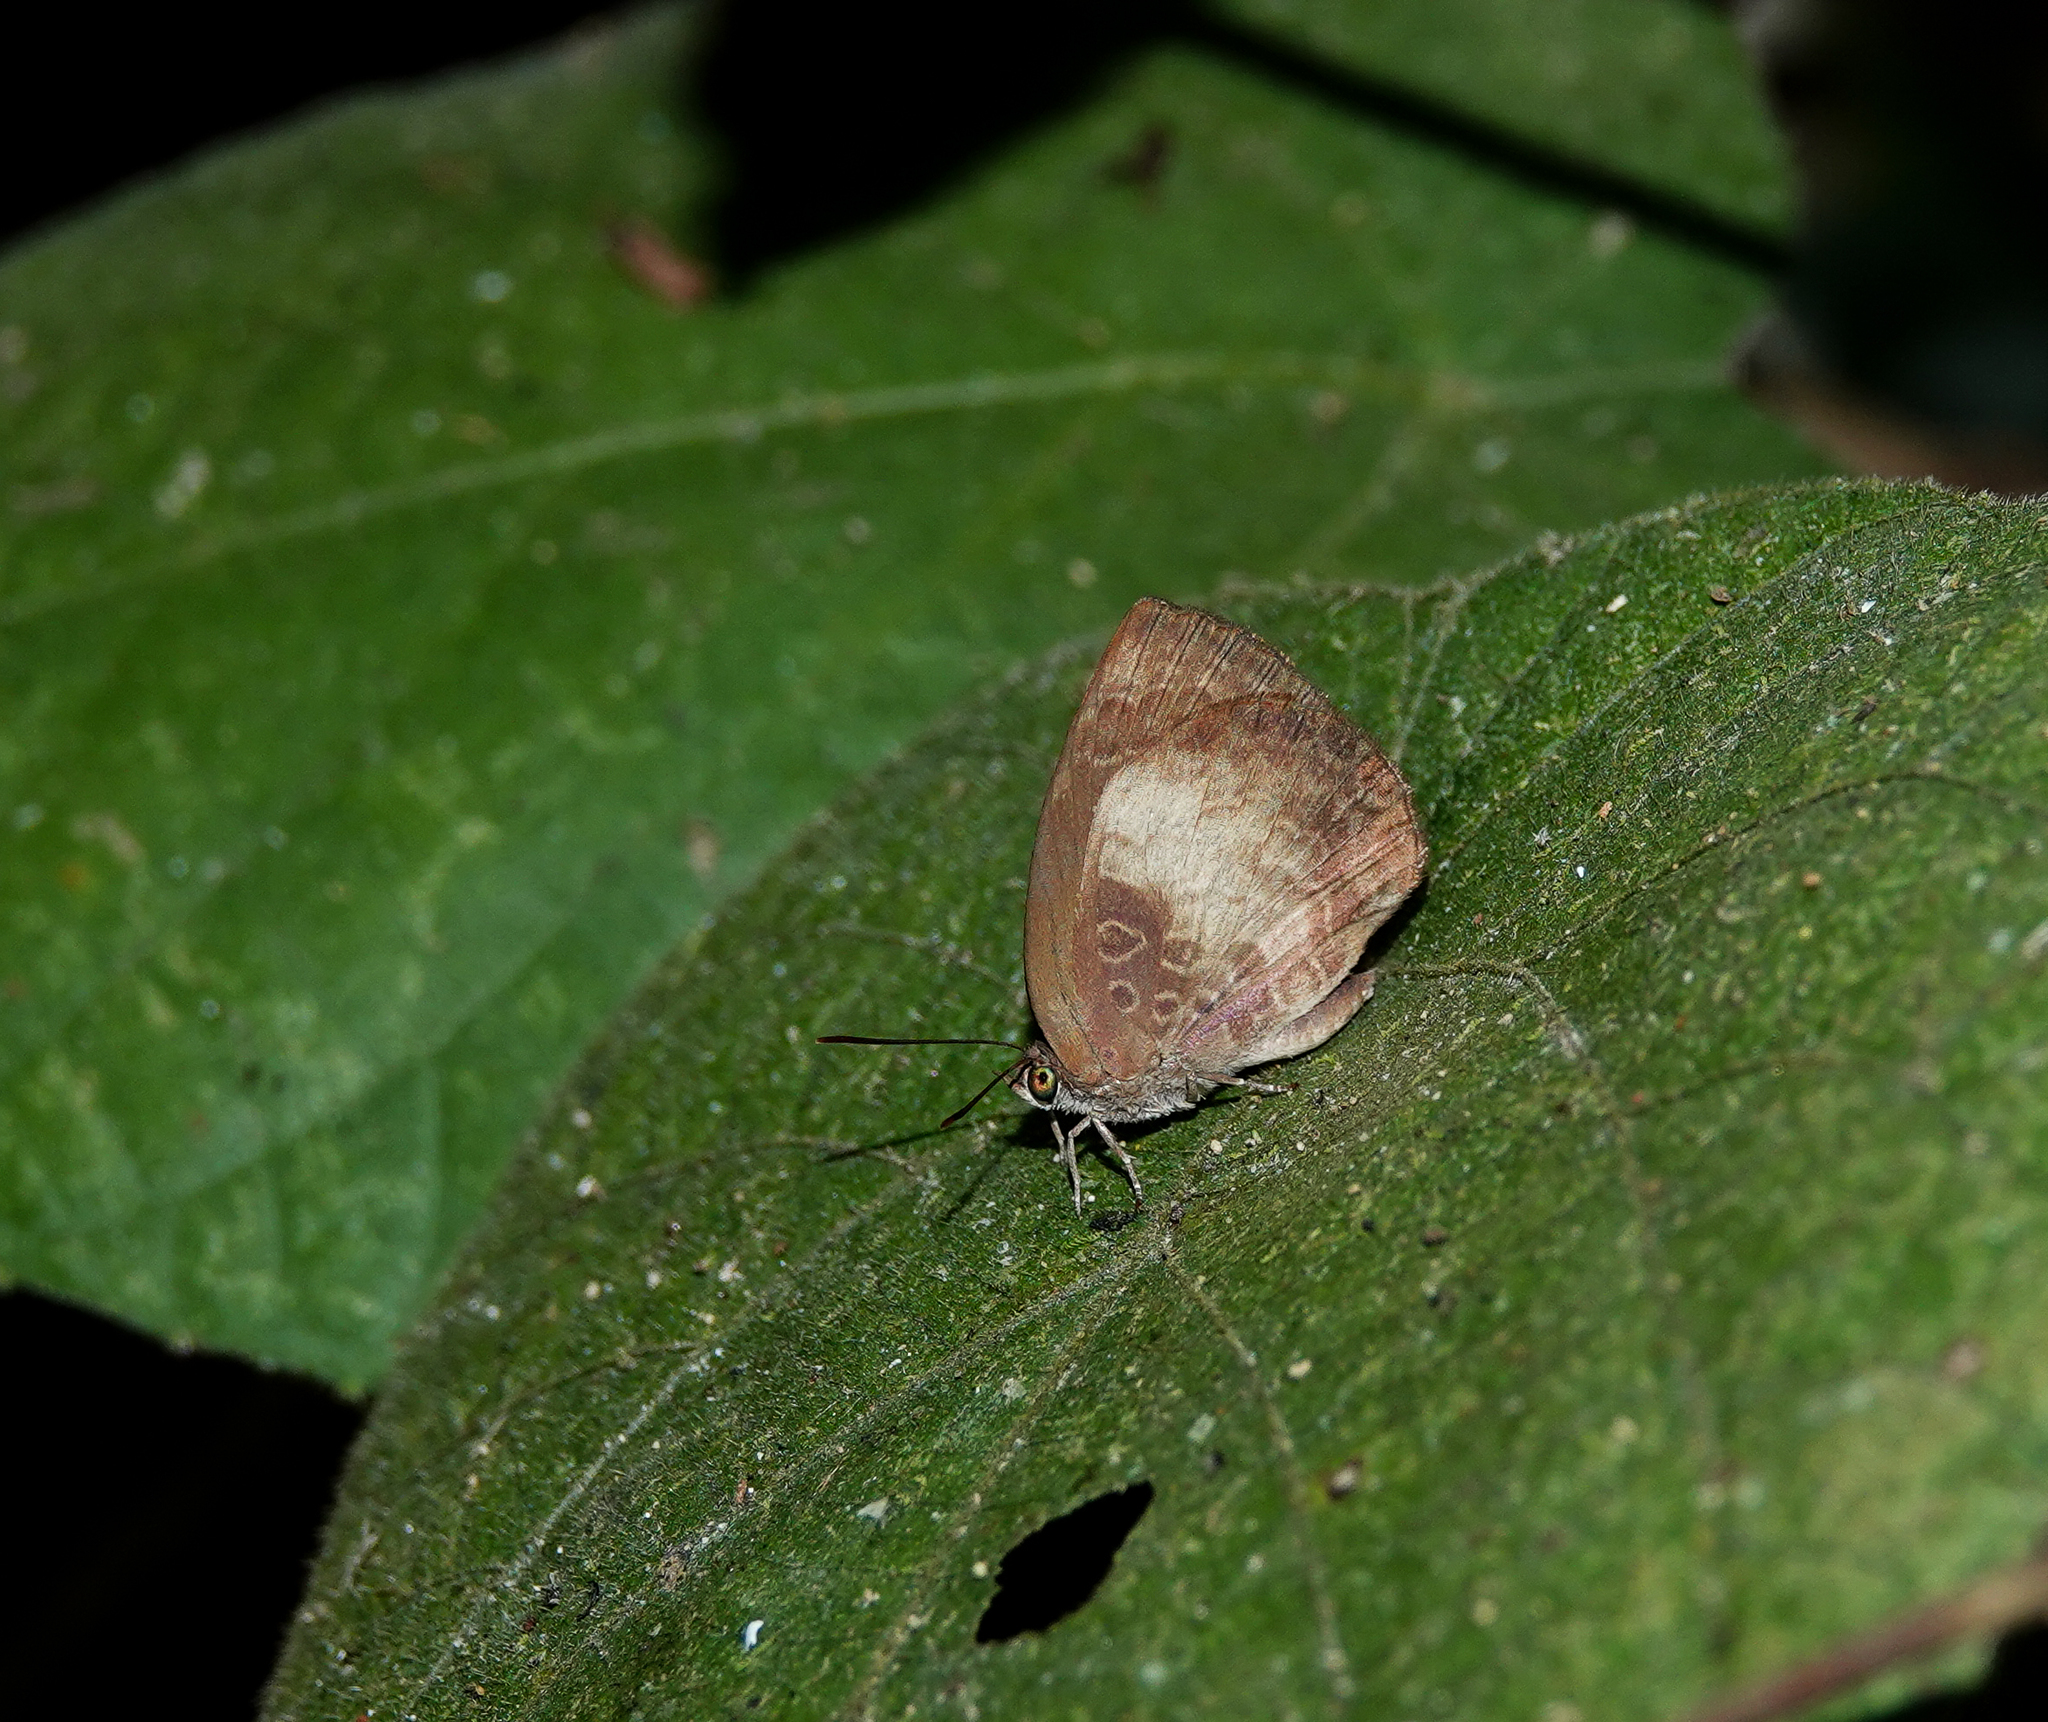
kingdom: Animalia
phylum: Arthropoda
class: Insecta
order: Lepidoptera
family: Lycaenidae
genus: Arhopala
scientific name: Arhopala perimuta
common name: Yellowdisc oakblue
